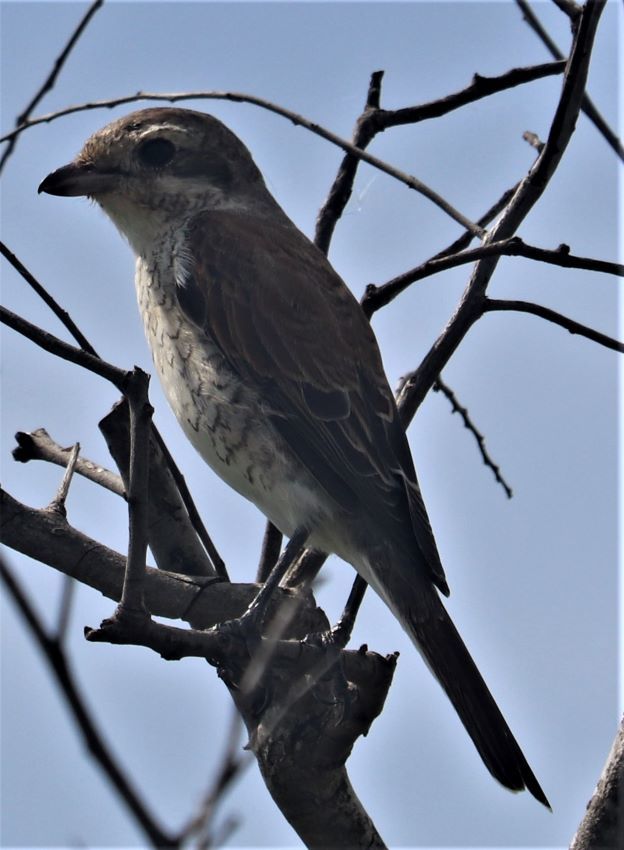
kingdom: Animalia
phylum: Chordata
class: Aves
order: Passeriformes
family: Laniidae
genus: Lanius
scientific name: Lanius collurio
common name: Red-backed shrike
